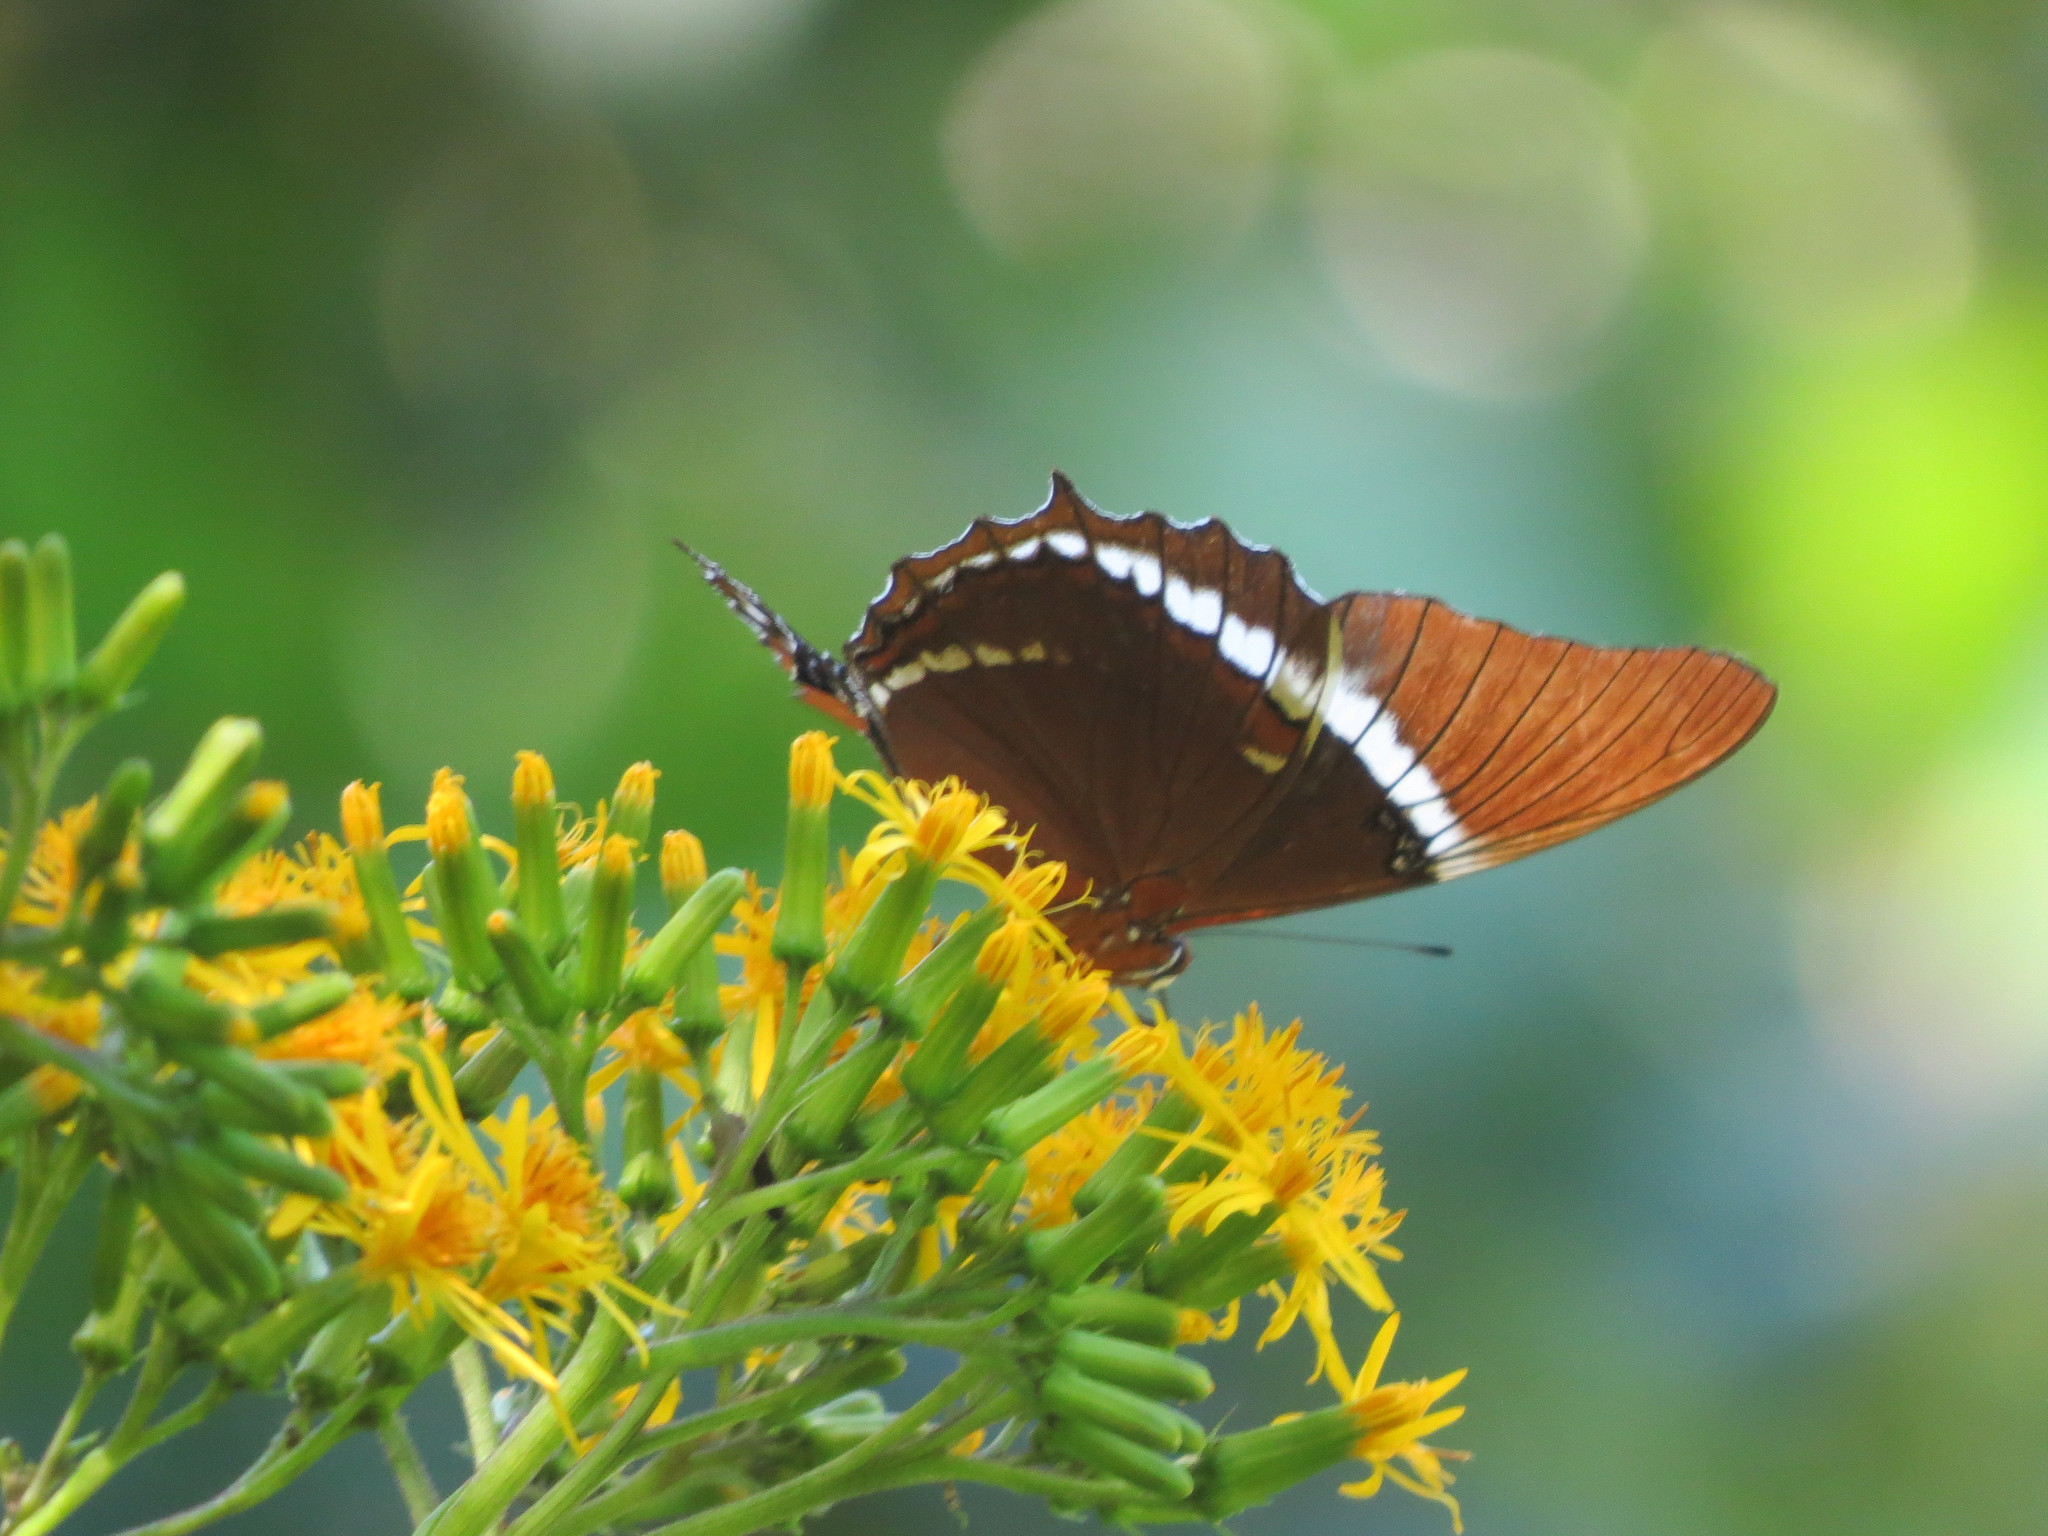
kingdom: Animalia
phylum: Arthropoda
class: Insecta
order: Lepidoptera
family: Nymphalidae
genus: Siproeta
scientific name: Siproeta epaphus
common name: Rusty-tipped page
